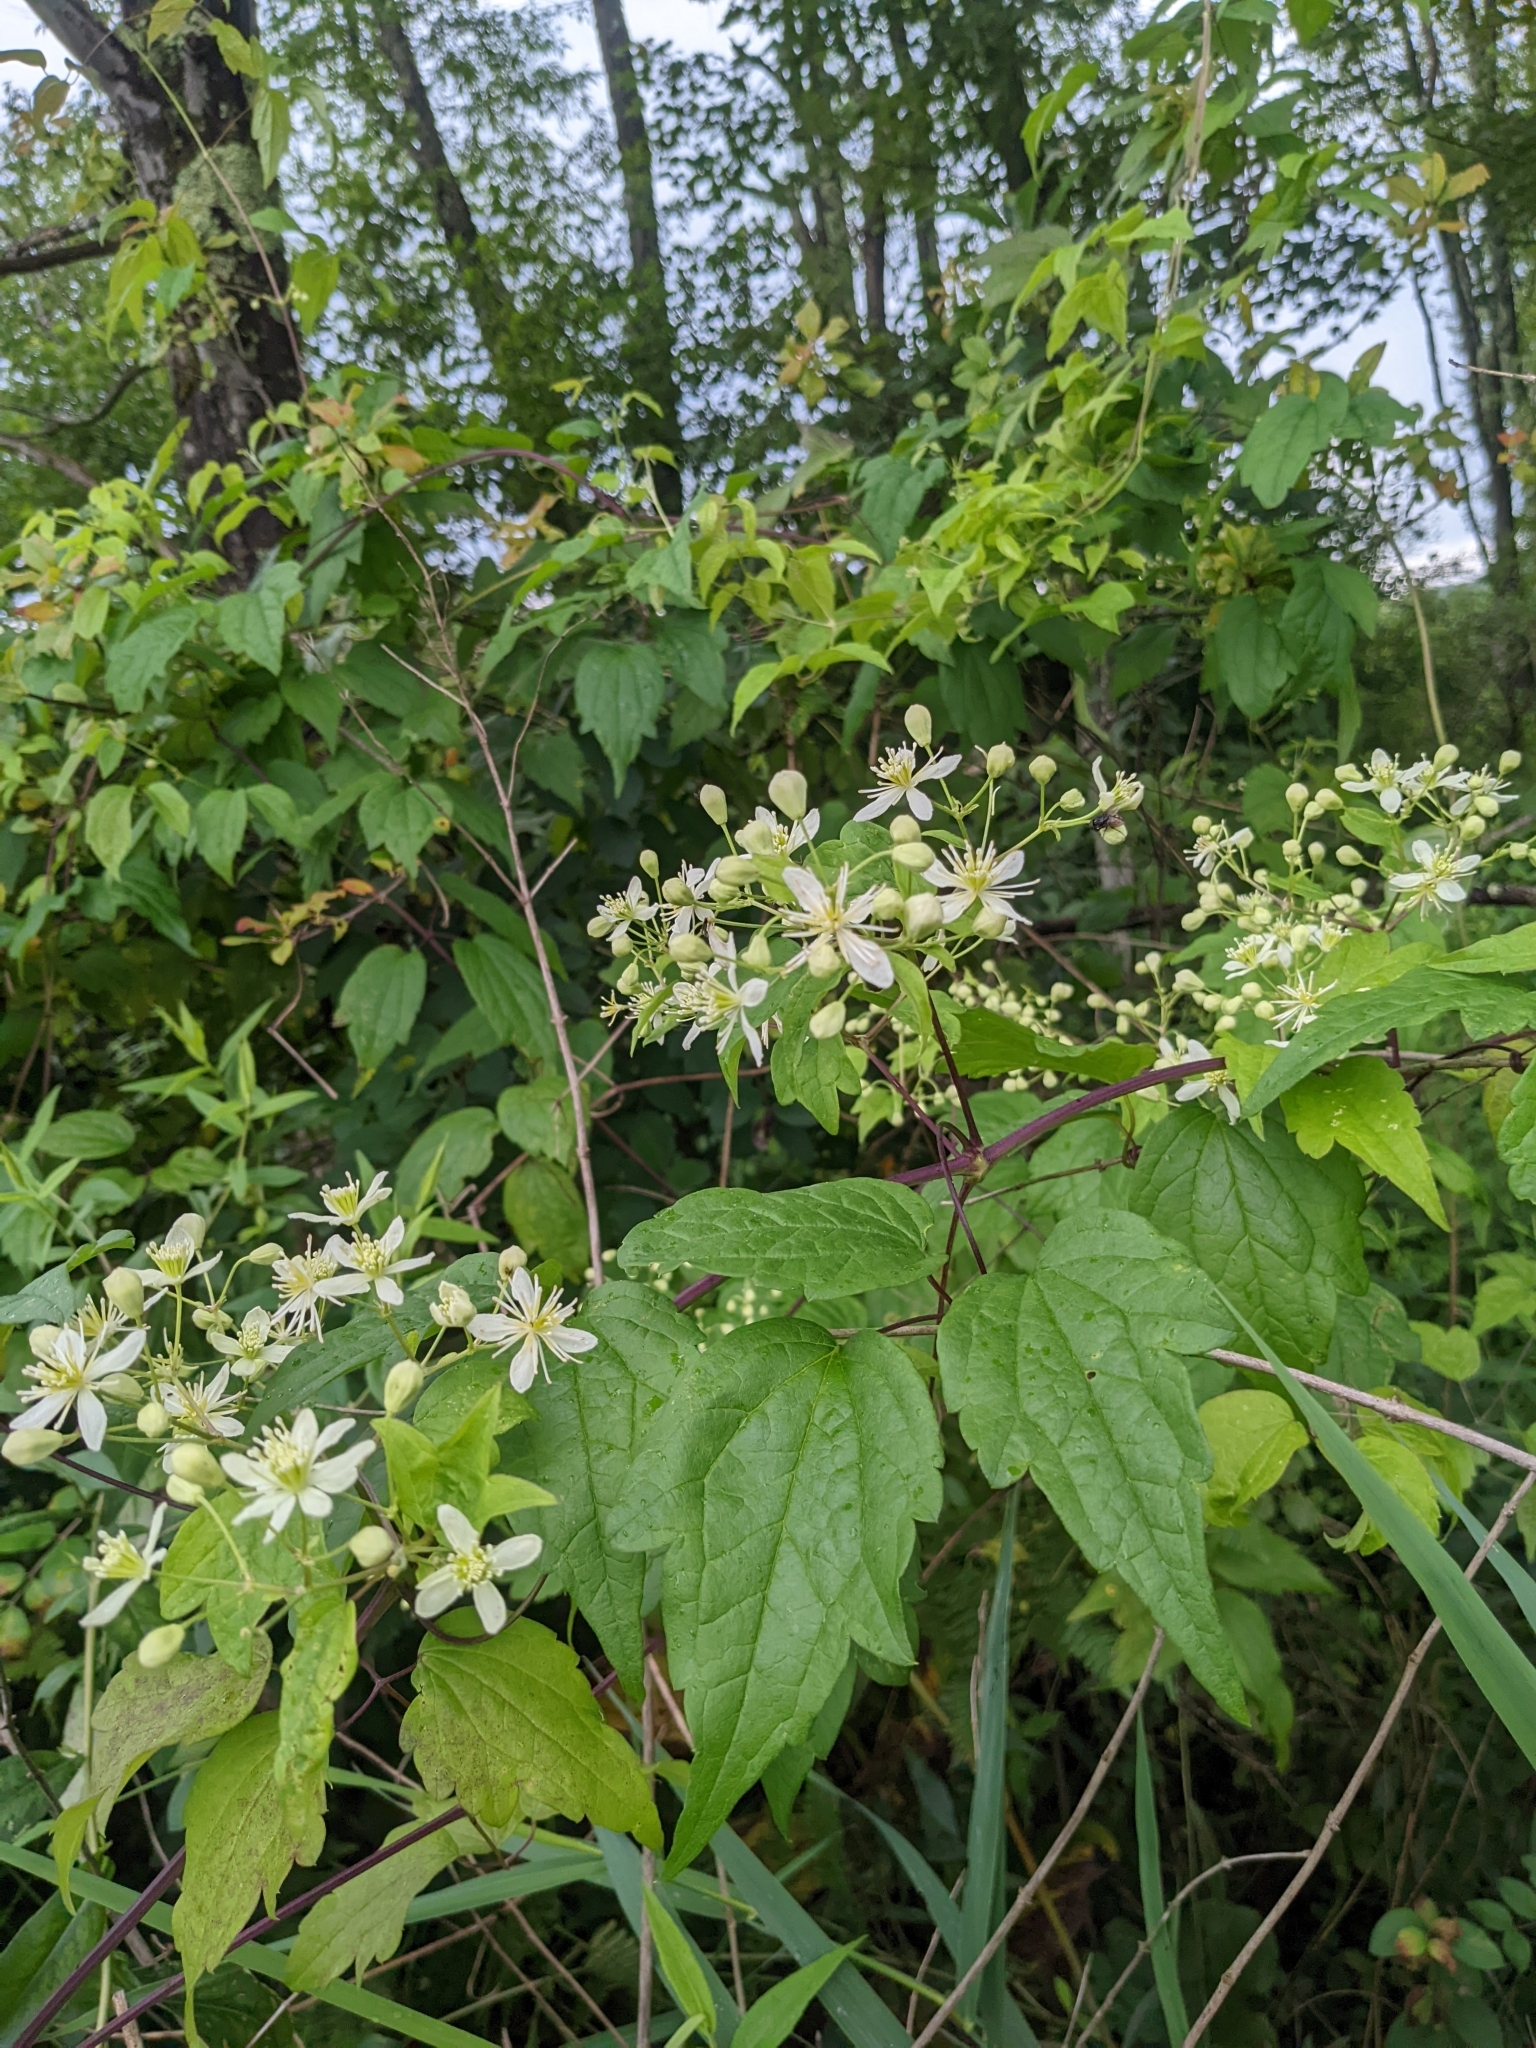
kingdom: Plantae
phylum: Tracheophyta
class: Magnoliopsida
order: Ranunculales
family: Ranunculaceae
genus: Clematis
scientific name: Clematis virginiana
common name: Virgin's-bower
